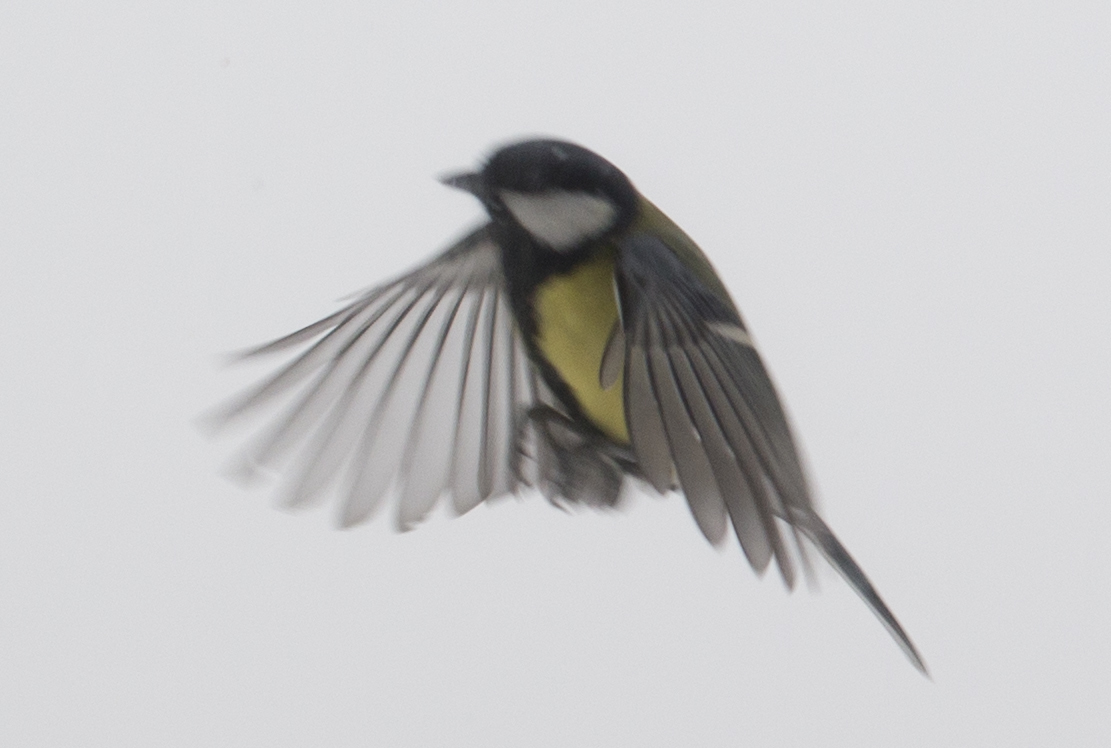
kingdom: Animalia
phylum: Chordata
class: Aves
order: Passeriformes
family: Paridae
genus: Parus
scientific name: Parus major
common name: Great tit
